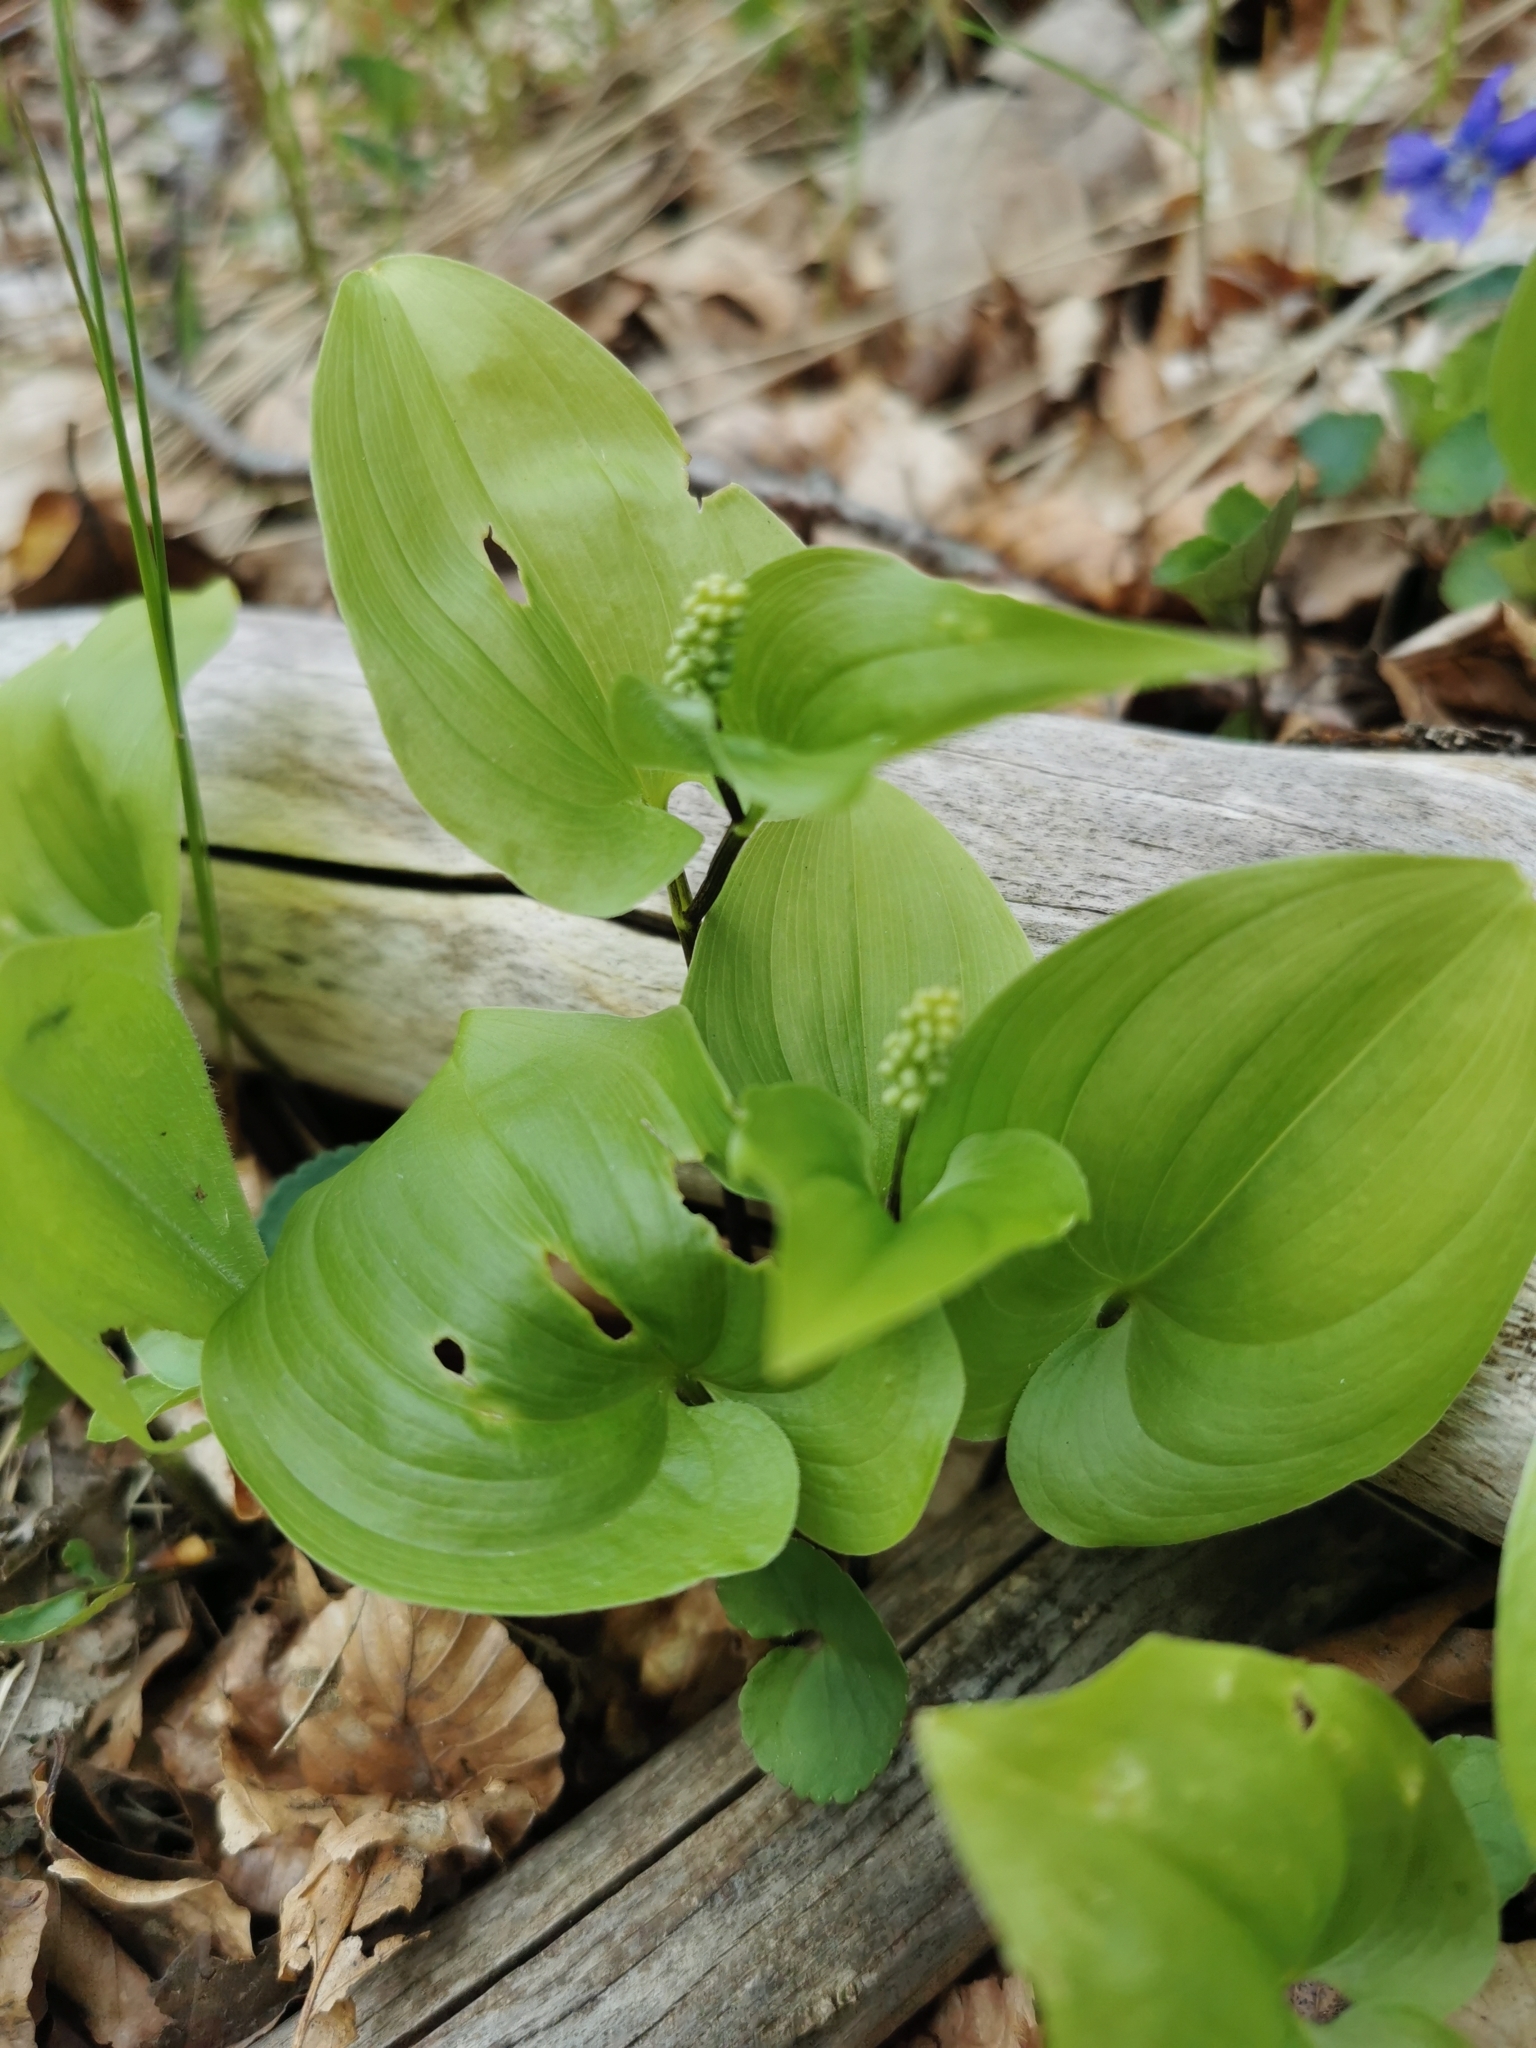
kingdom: Plantae
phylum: Tracheophyta
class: Liliopsida
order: Asparagales
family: Asparagaceae
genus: Maianthemum
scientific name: Maianthemum bifolium
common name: May lily
